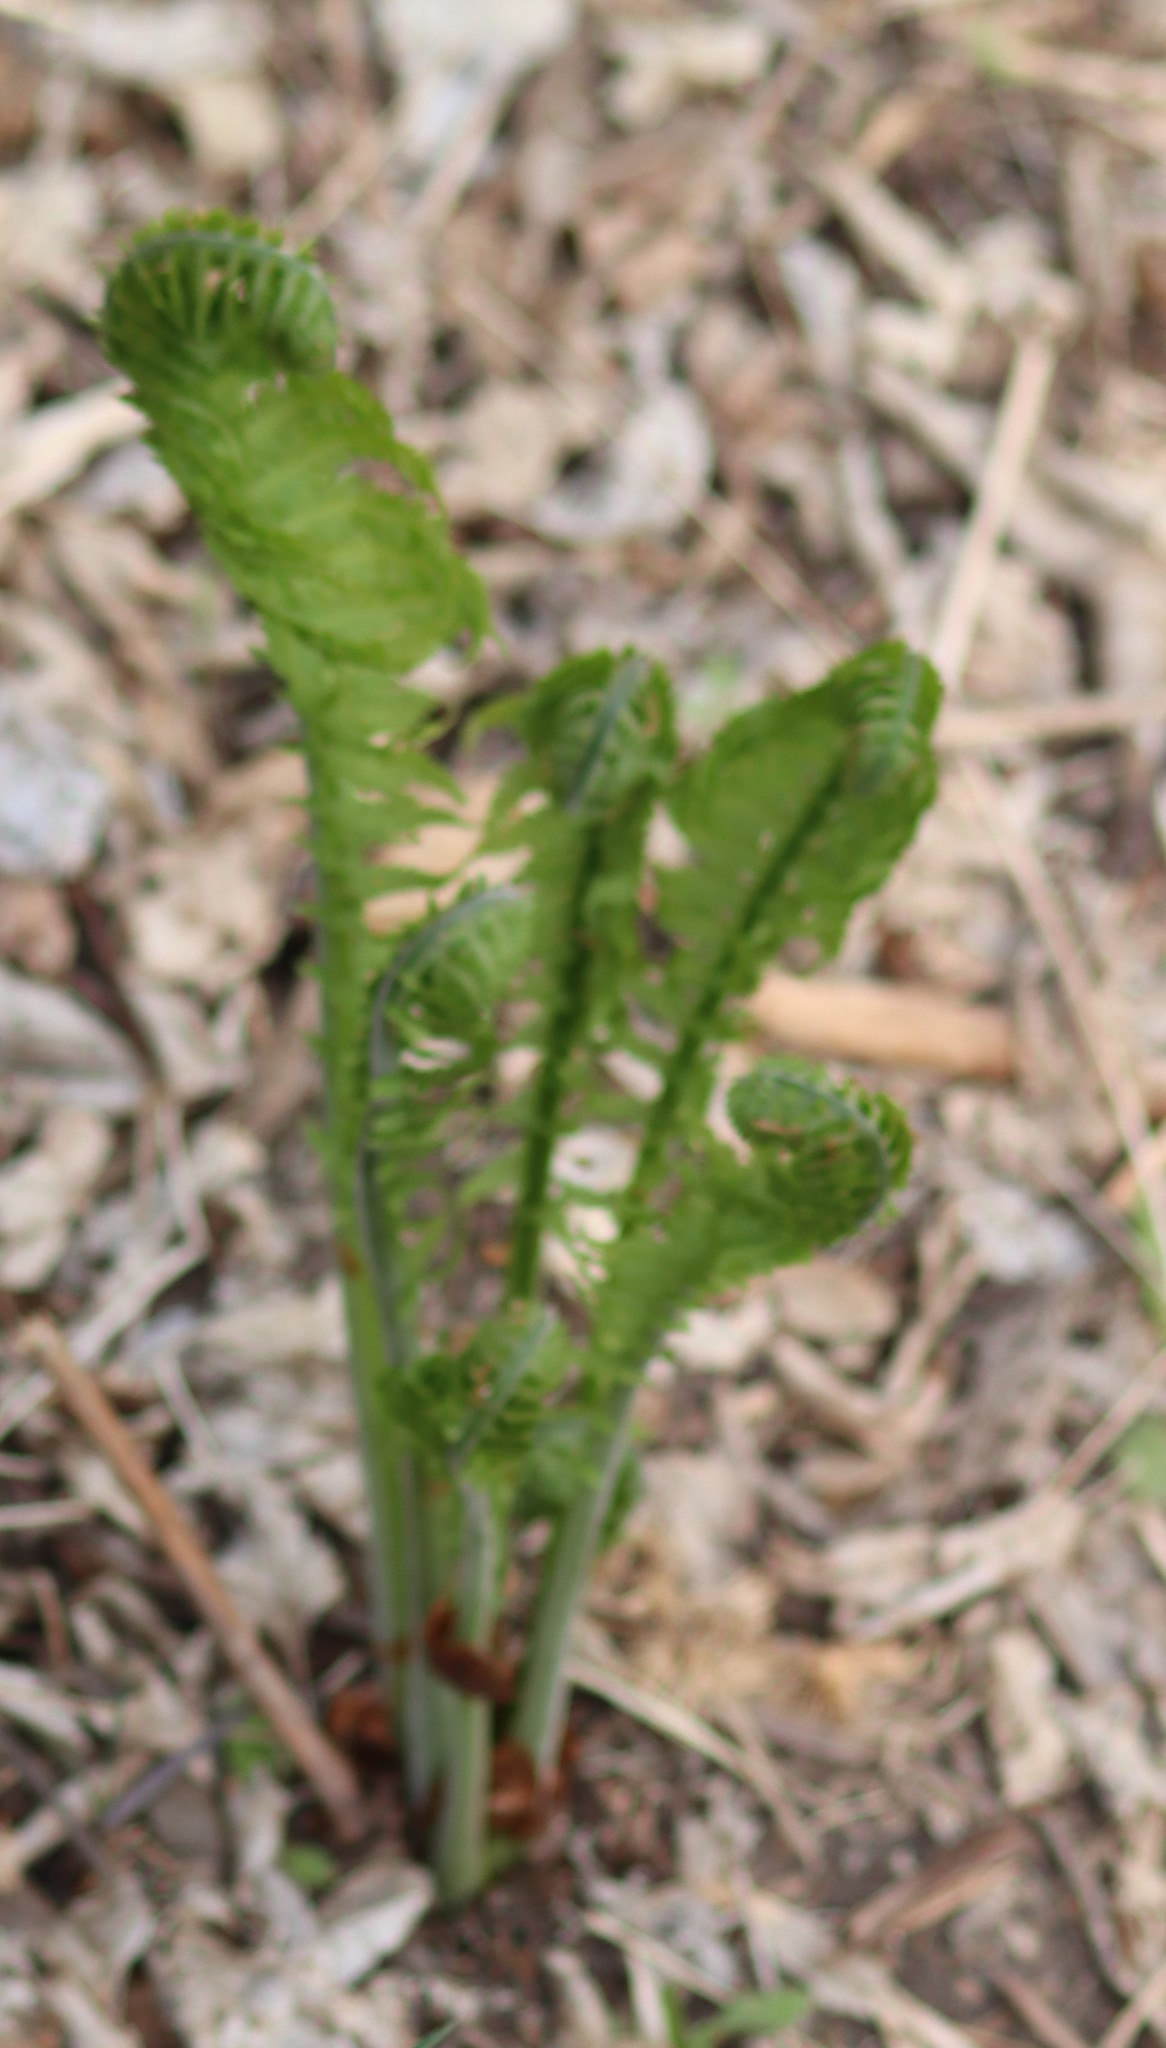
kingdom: Plantae
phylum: Tracheophyta
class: Polypodiopsida
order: Polypodiales
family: Onocleaceae
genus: Matteuccia
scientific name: Matteuccia struthiopteris
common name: Ostrich fern
